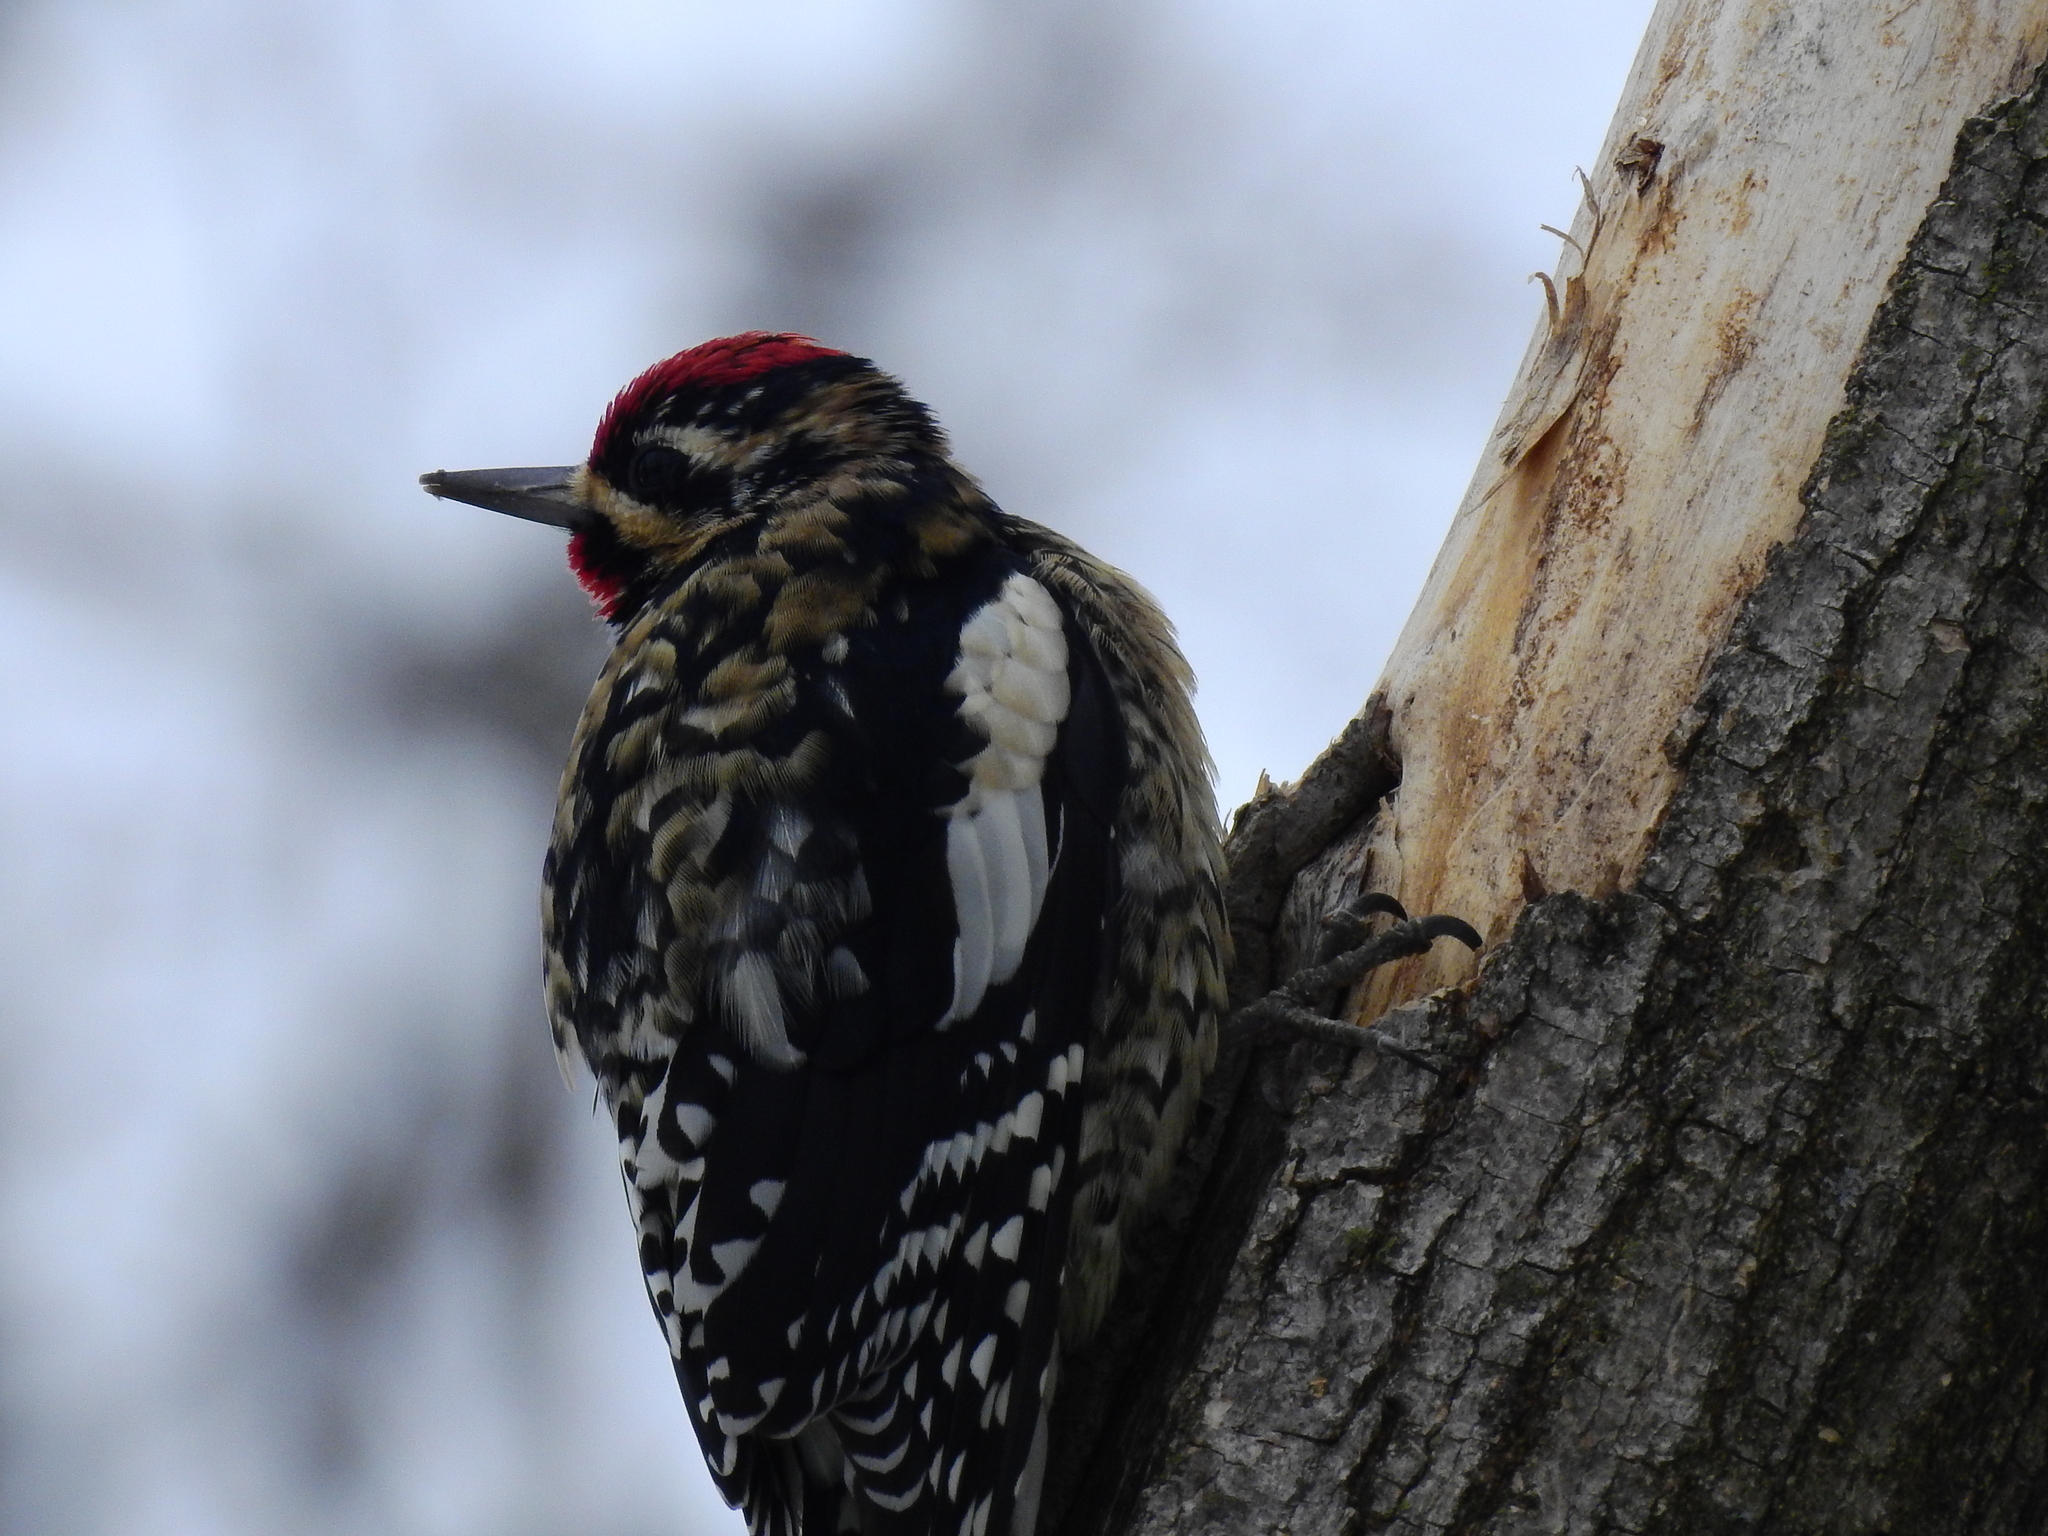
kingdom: Animalia
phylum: Chordata
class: Aves
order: Piciformes
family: Picidae
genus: Sphyrapicus
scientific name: Sphyrapicus varius
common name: Yellow-bellied sapsucker
